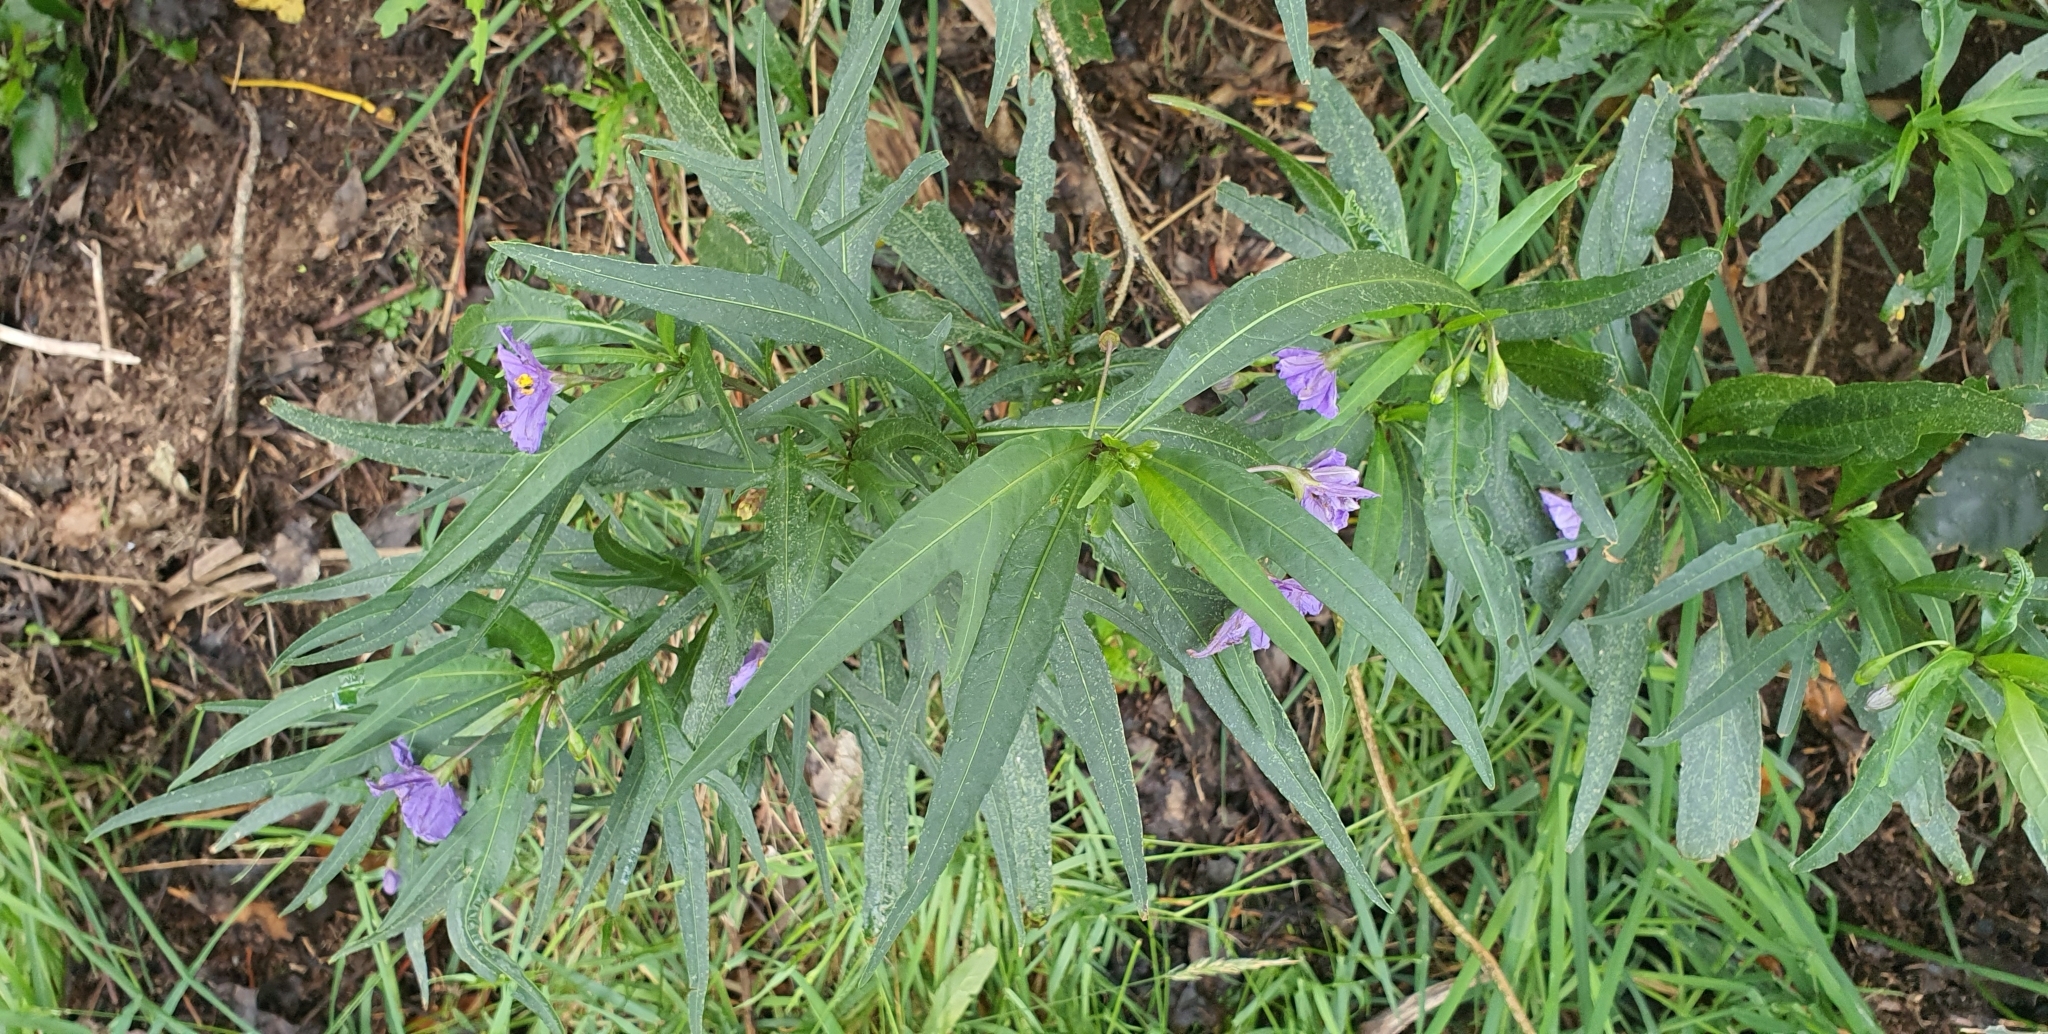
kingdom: Plantae
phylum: Tracheophyta
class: Magnoliopsida
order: Solanales
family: Solanaceae
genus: Solanum
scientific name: Solanum laciniatum
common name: Kangaroo-apple
